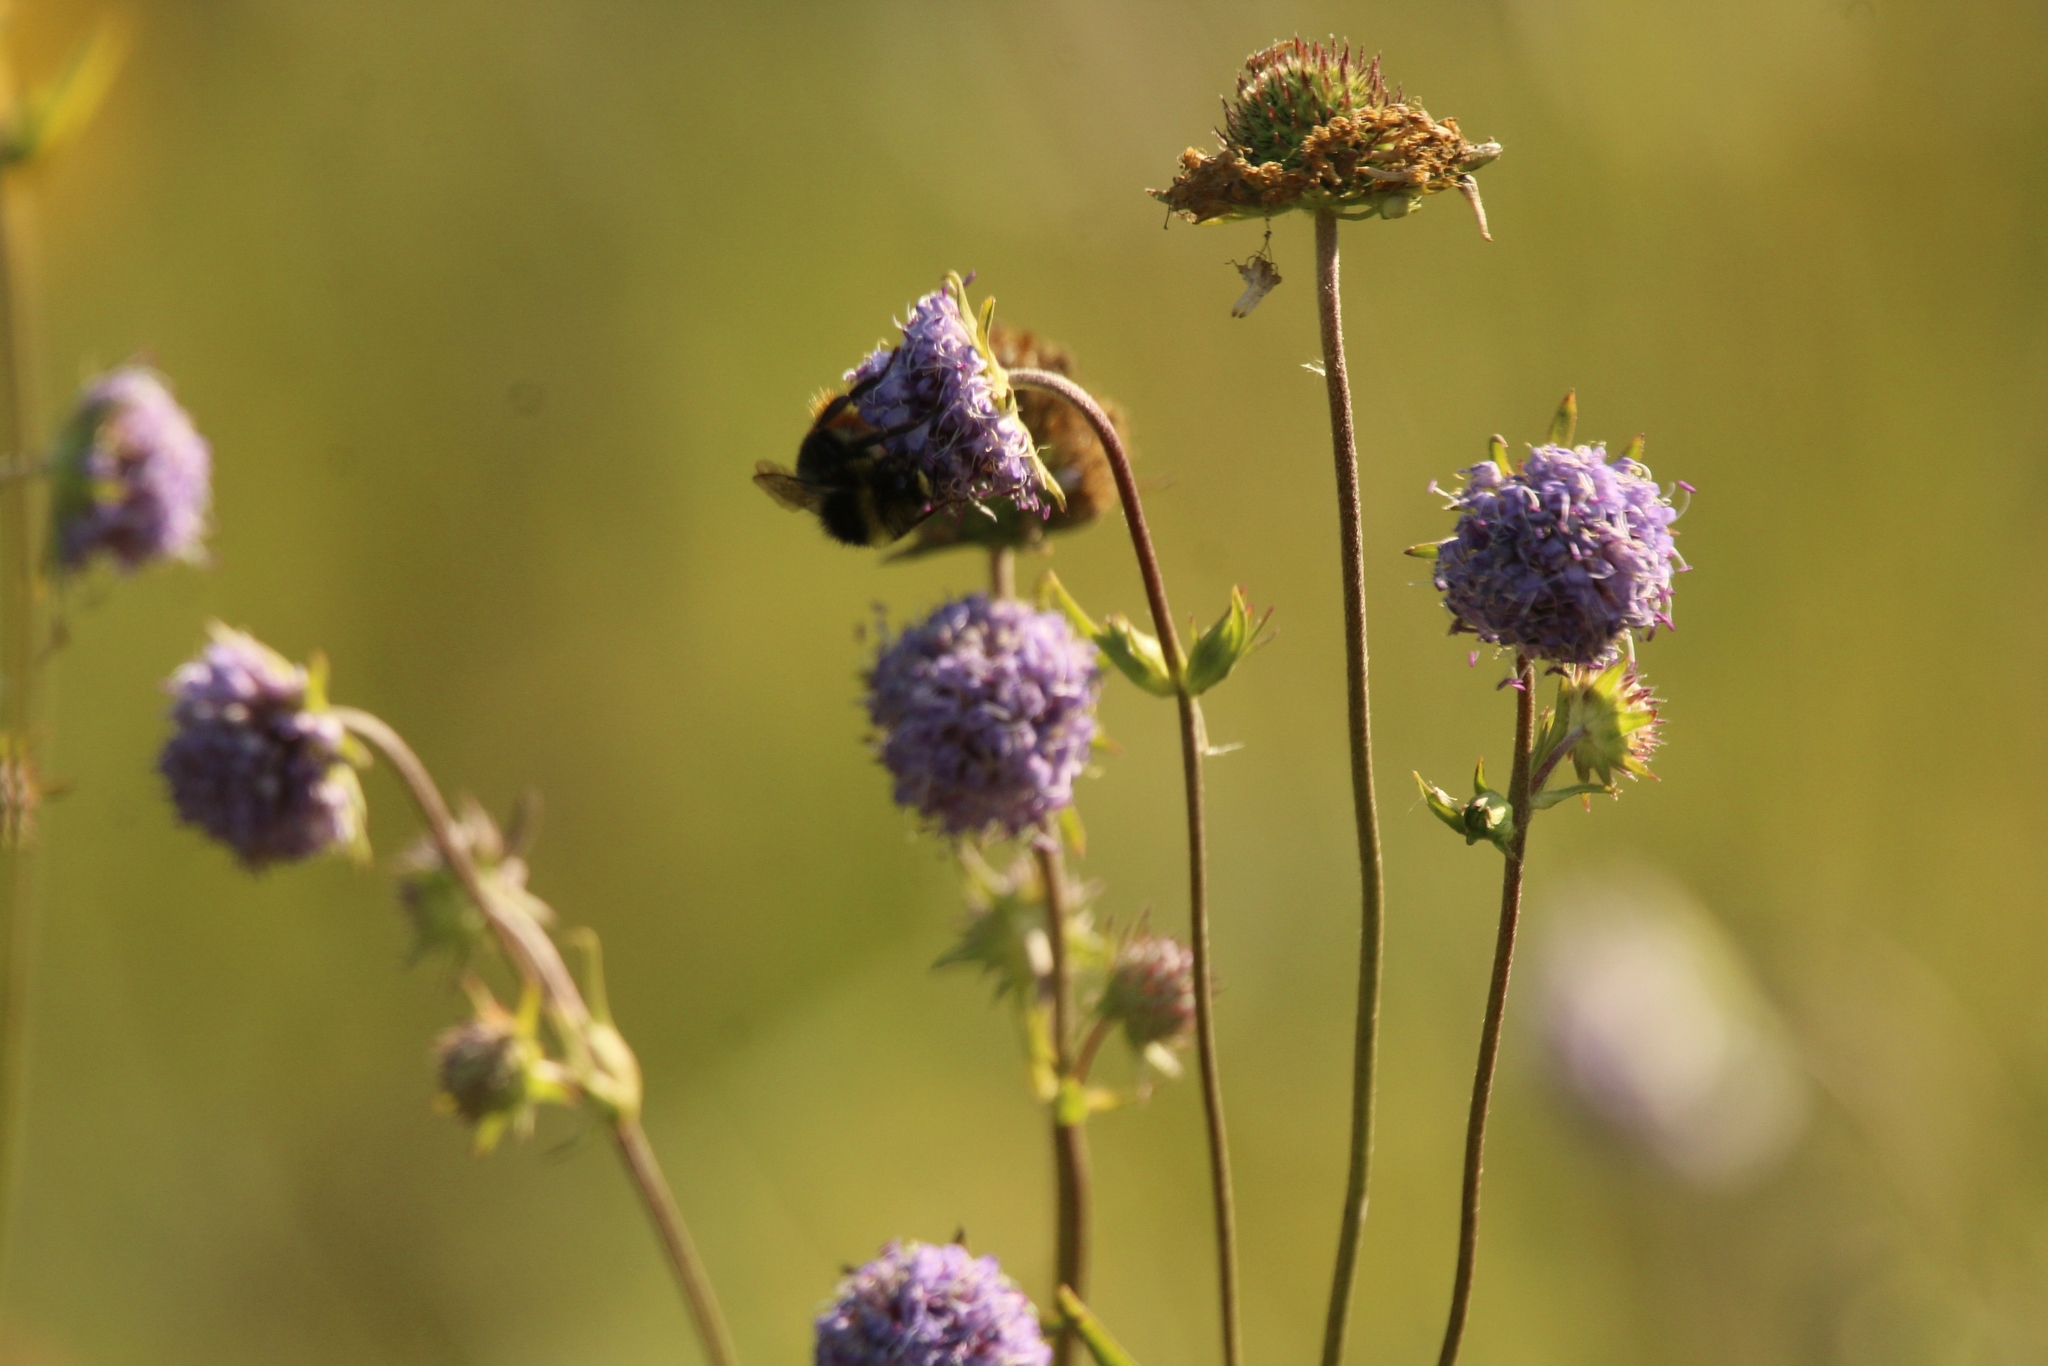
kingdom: Plantae
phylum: Tracheophyta
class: Magnoliopsida
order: Dipsacales
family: Caprifoliaceae
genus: Succisa
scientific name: Succisa pratensis
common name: Devil's-bit
